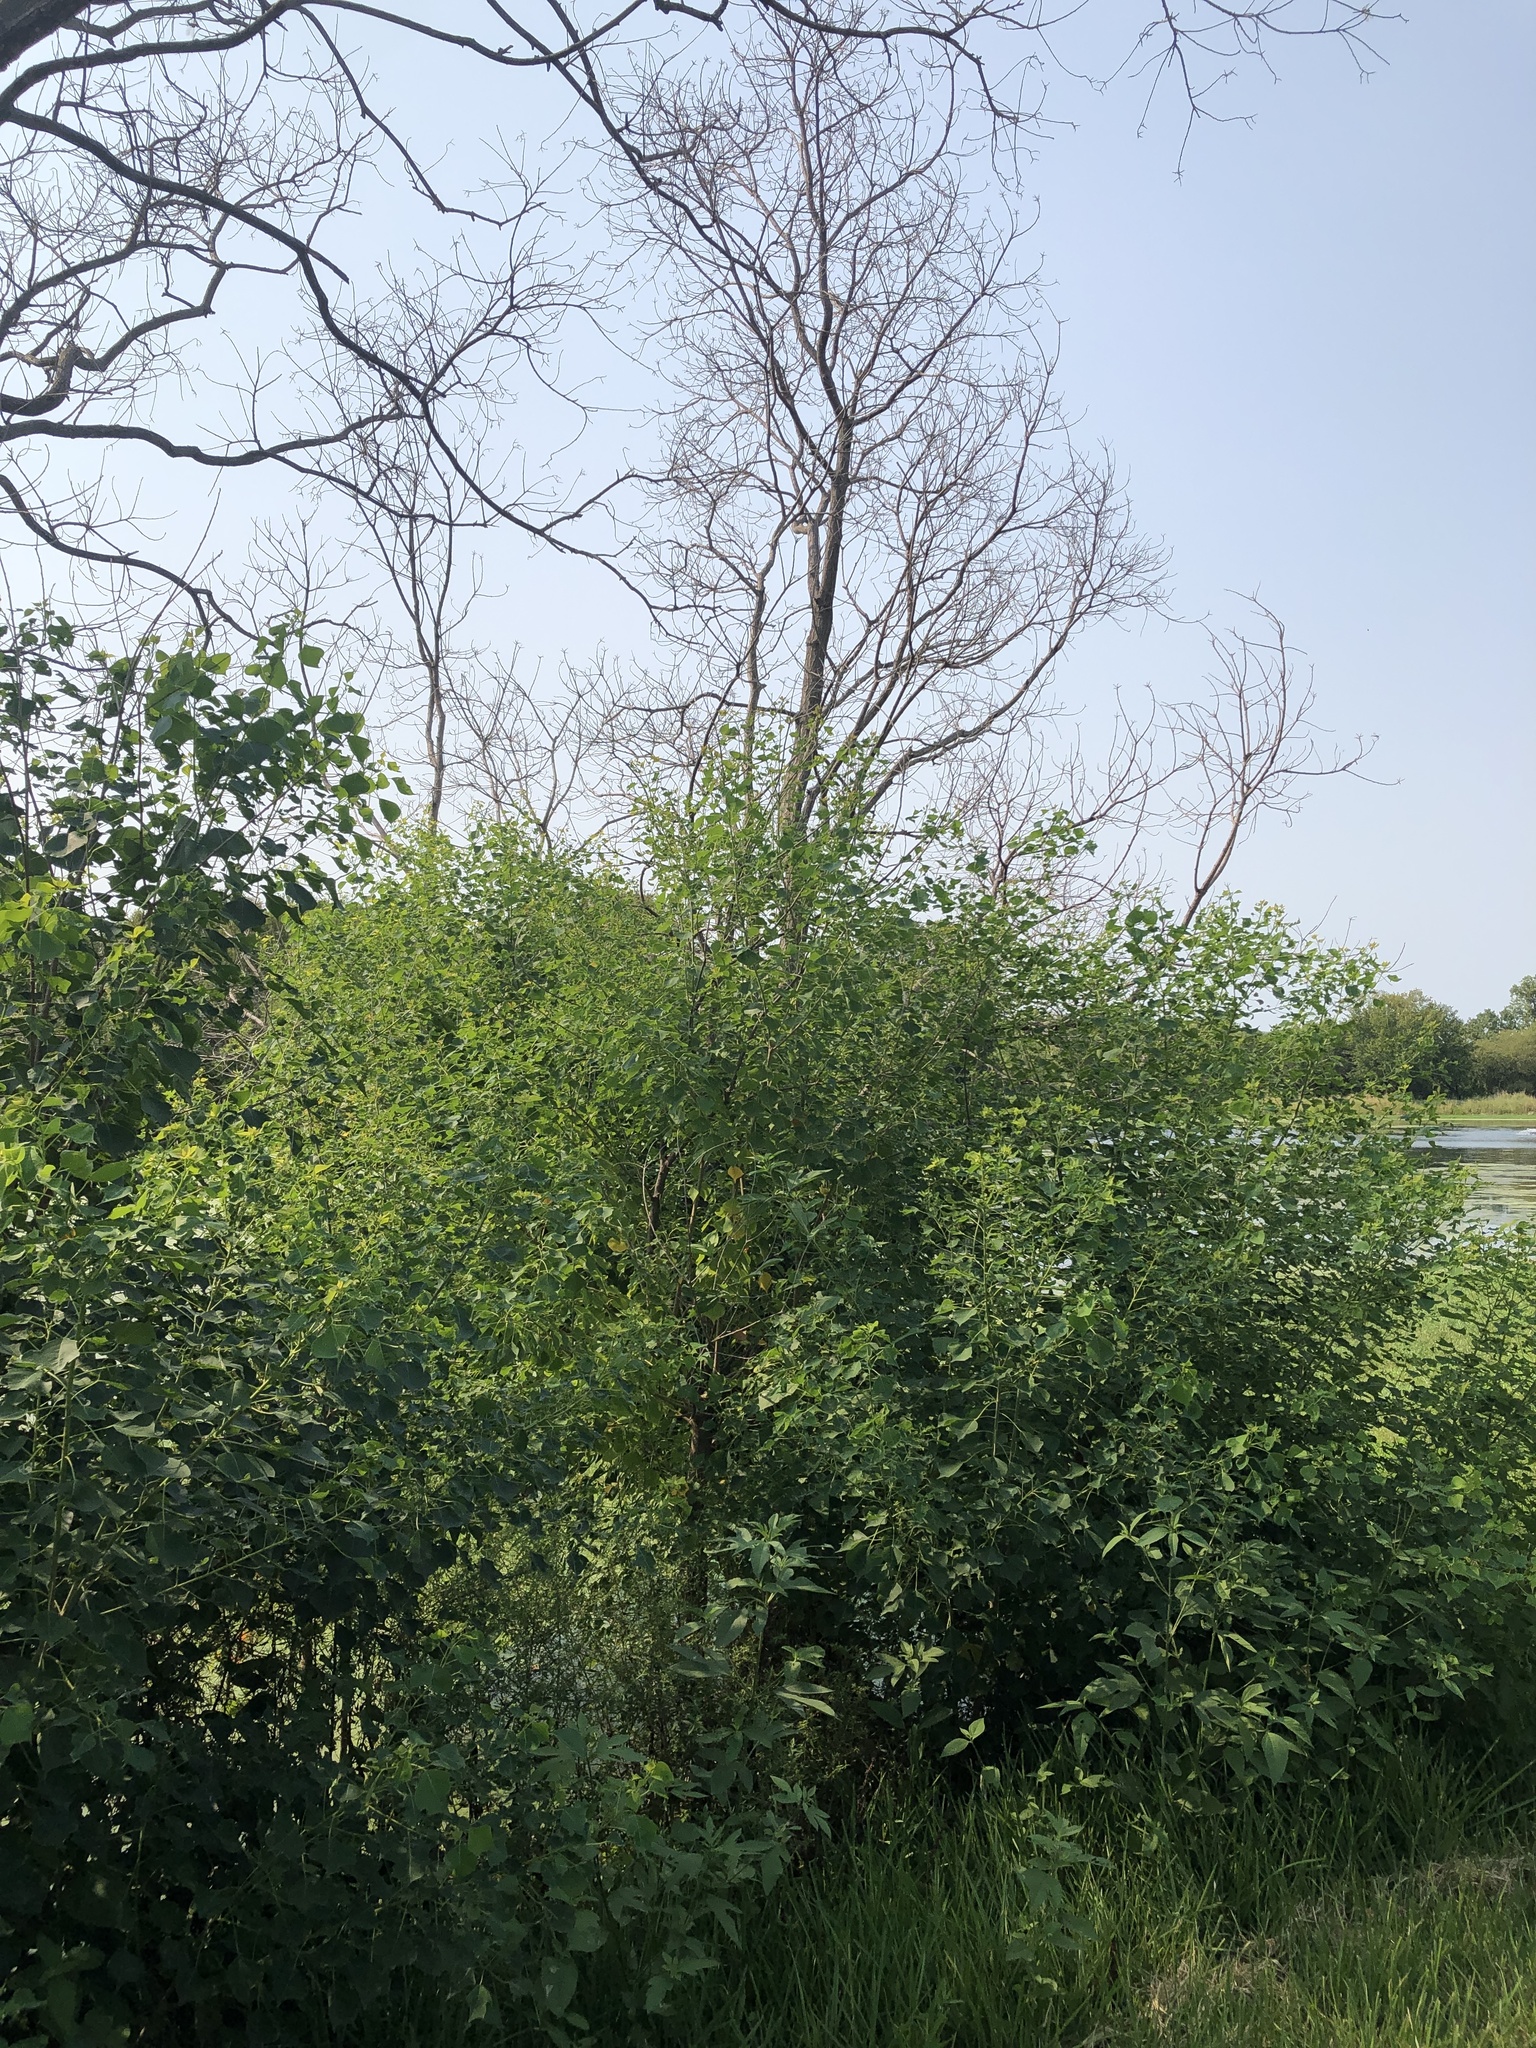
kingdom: Plantae
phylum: Tracheophyta
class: Magnoliopsida
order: Malpighiales
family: Euphorbiaceae
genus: Triadica
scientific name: Triadica sebifera
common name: Chinese tallow
